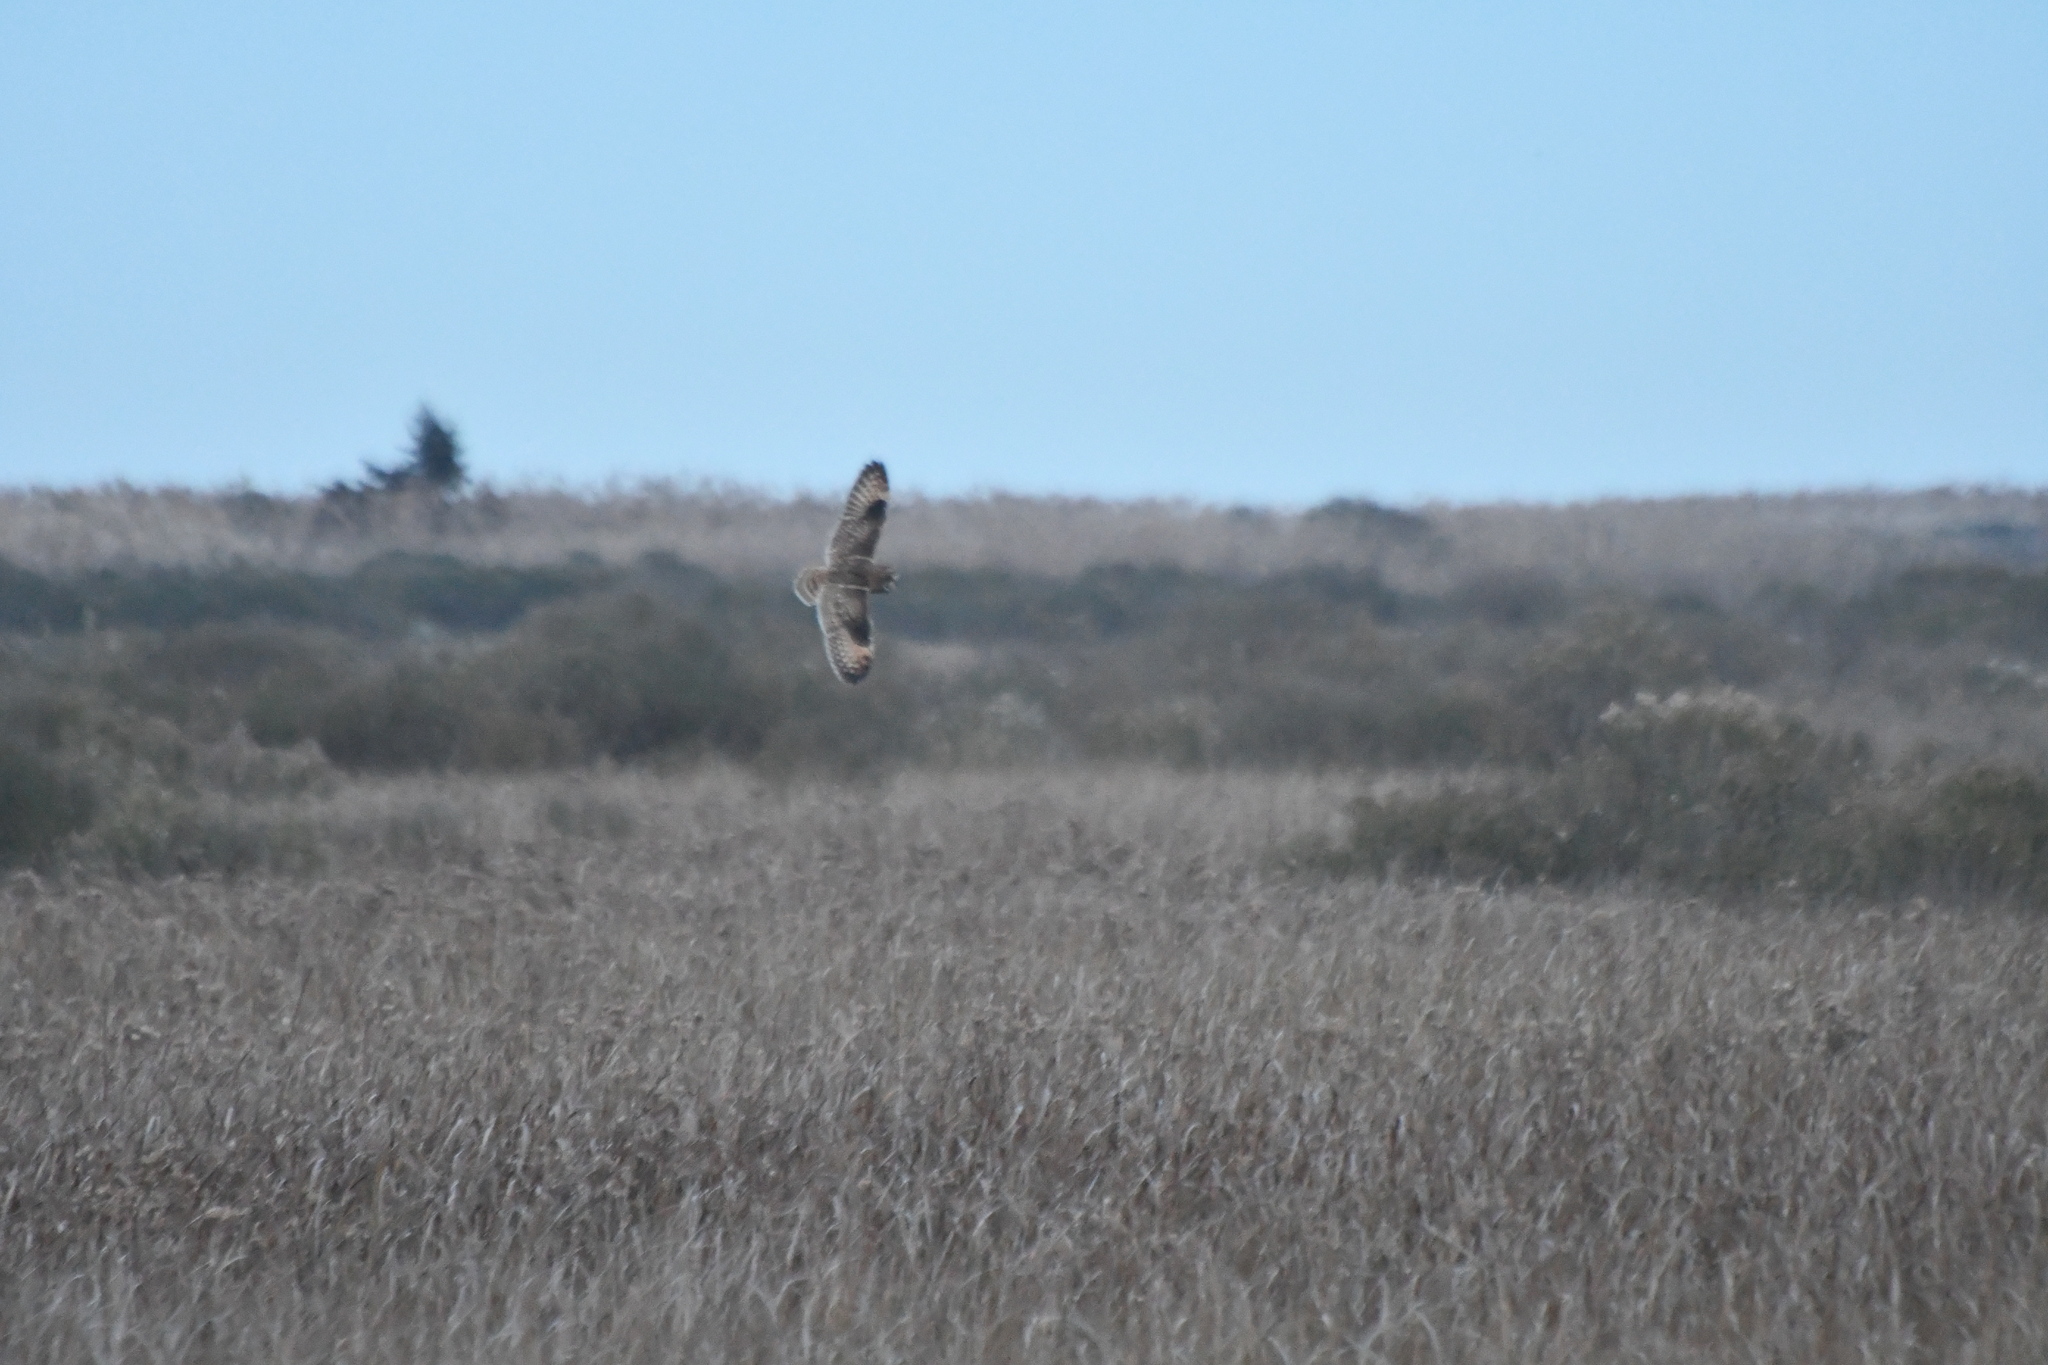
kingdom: Animalia
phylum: Chordata
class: Aves
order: Strigiformes
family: Strigidae
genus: Asio
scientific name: Asio flammeus
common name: Short-eared owl
